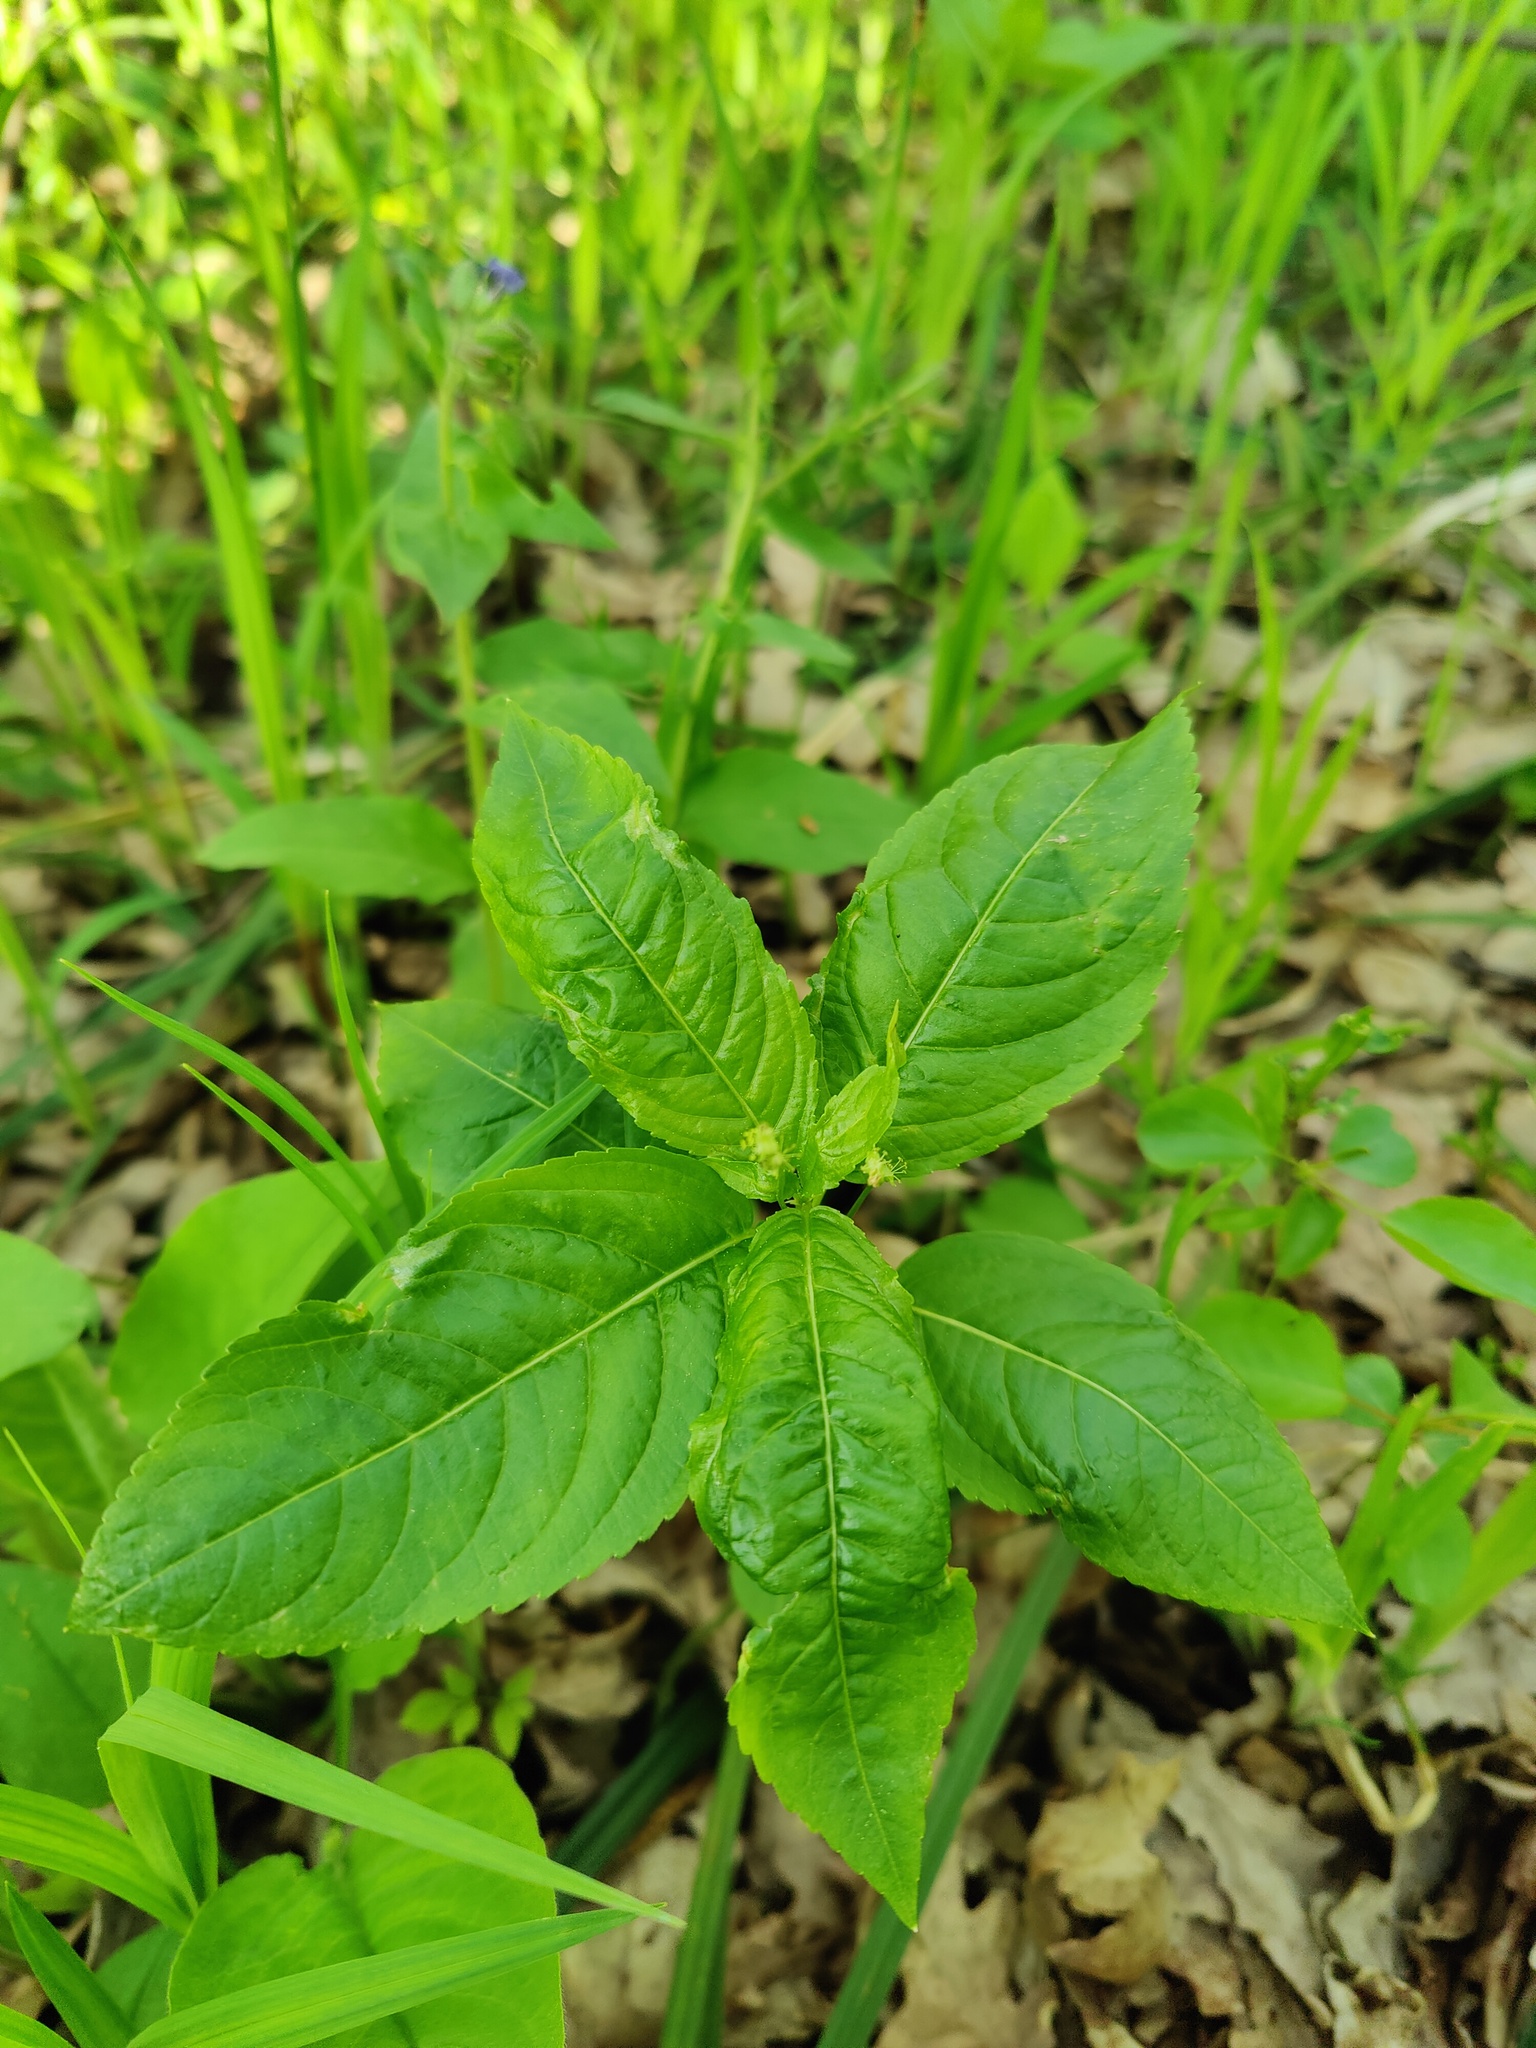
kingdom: Plantae
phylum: Tracheophyta
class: Magnoliopsida
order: Malpighiales
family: Euphorbiaceae
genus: Mercurialis
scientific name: Mercurialis perennis
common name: Dog mercury
